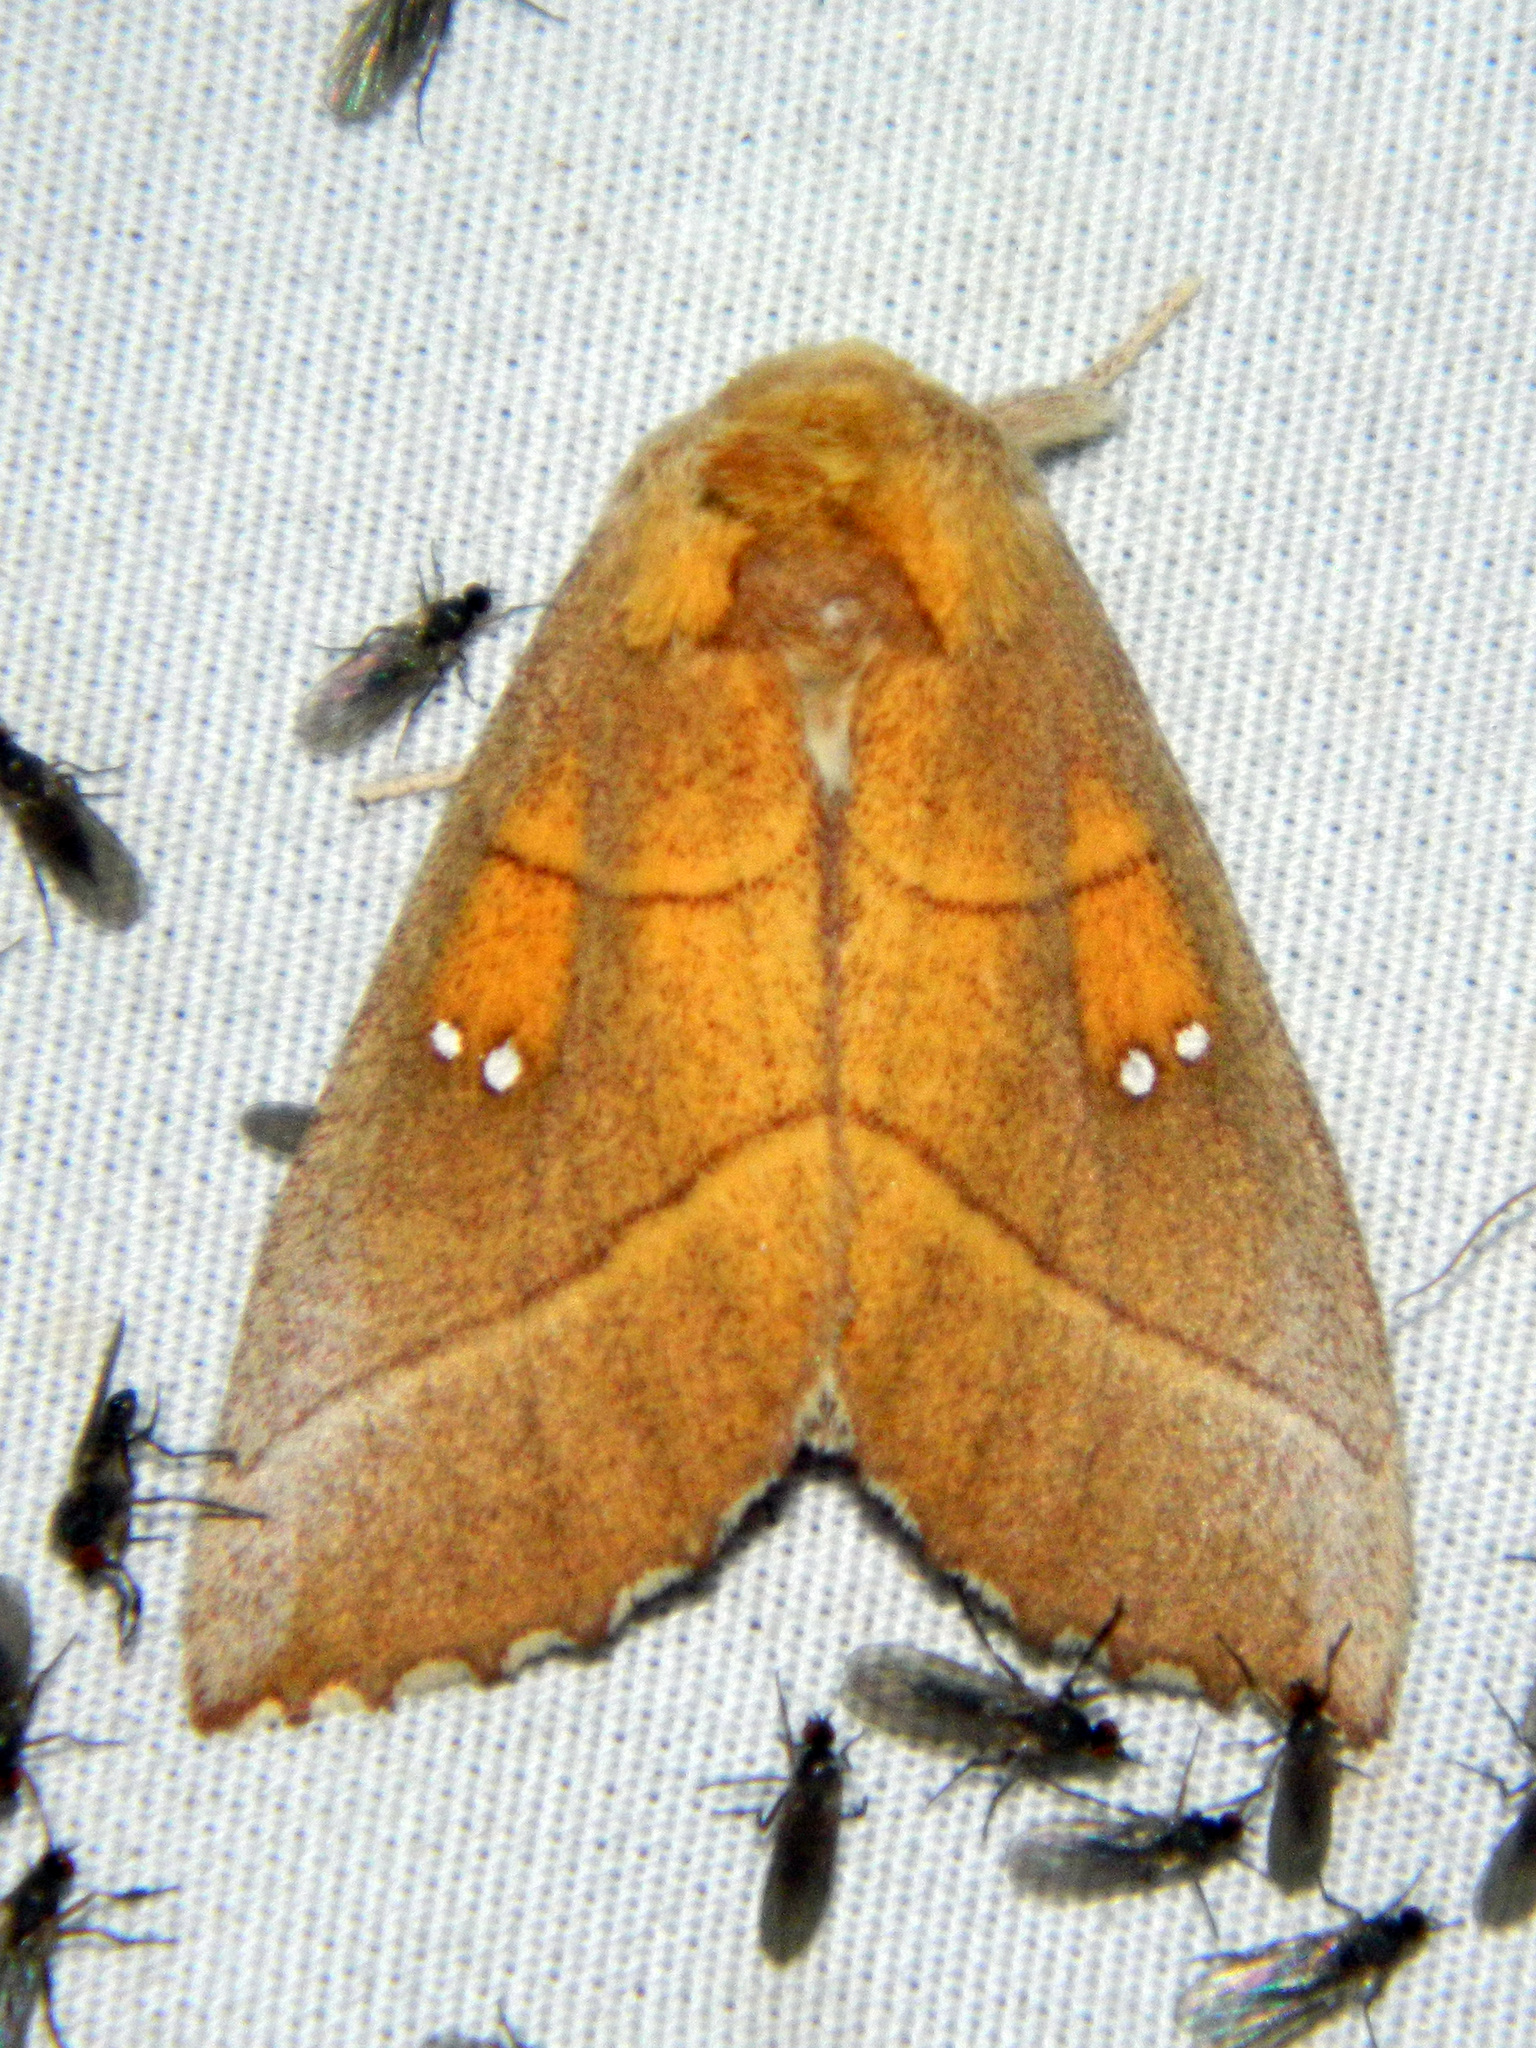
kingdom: Animalia
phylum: Arthropoda
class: Insecta
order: Lepidoptera
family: Notodontidae
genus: Nadata
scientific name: Nadata gibbosa
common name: White-dotted prominent
